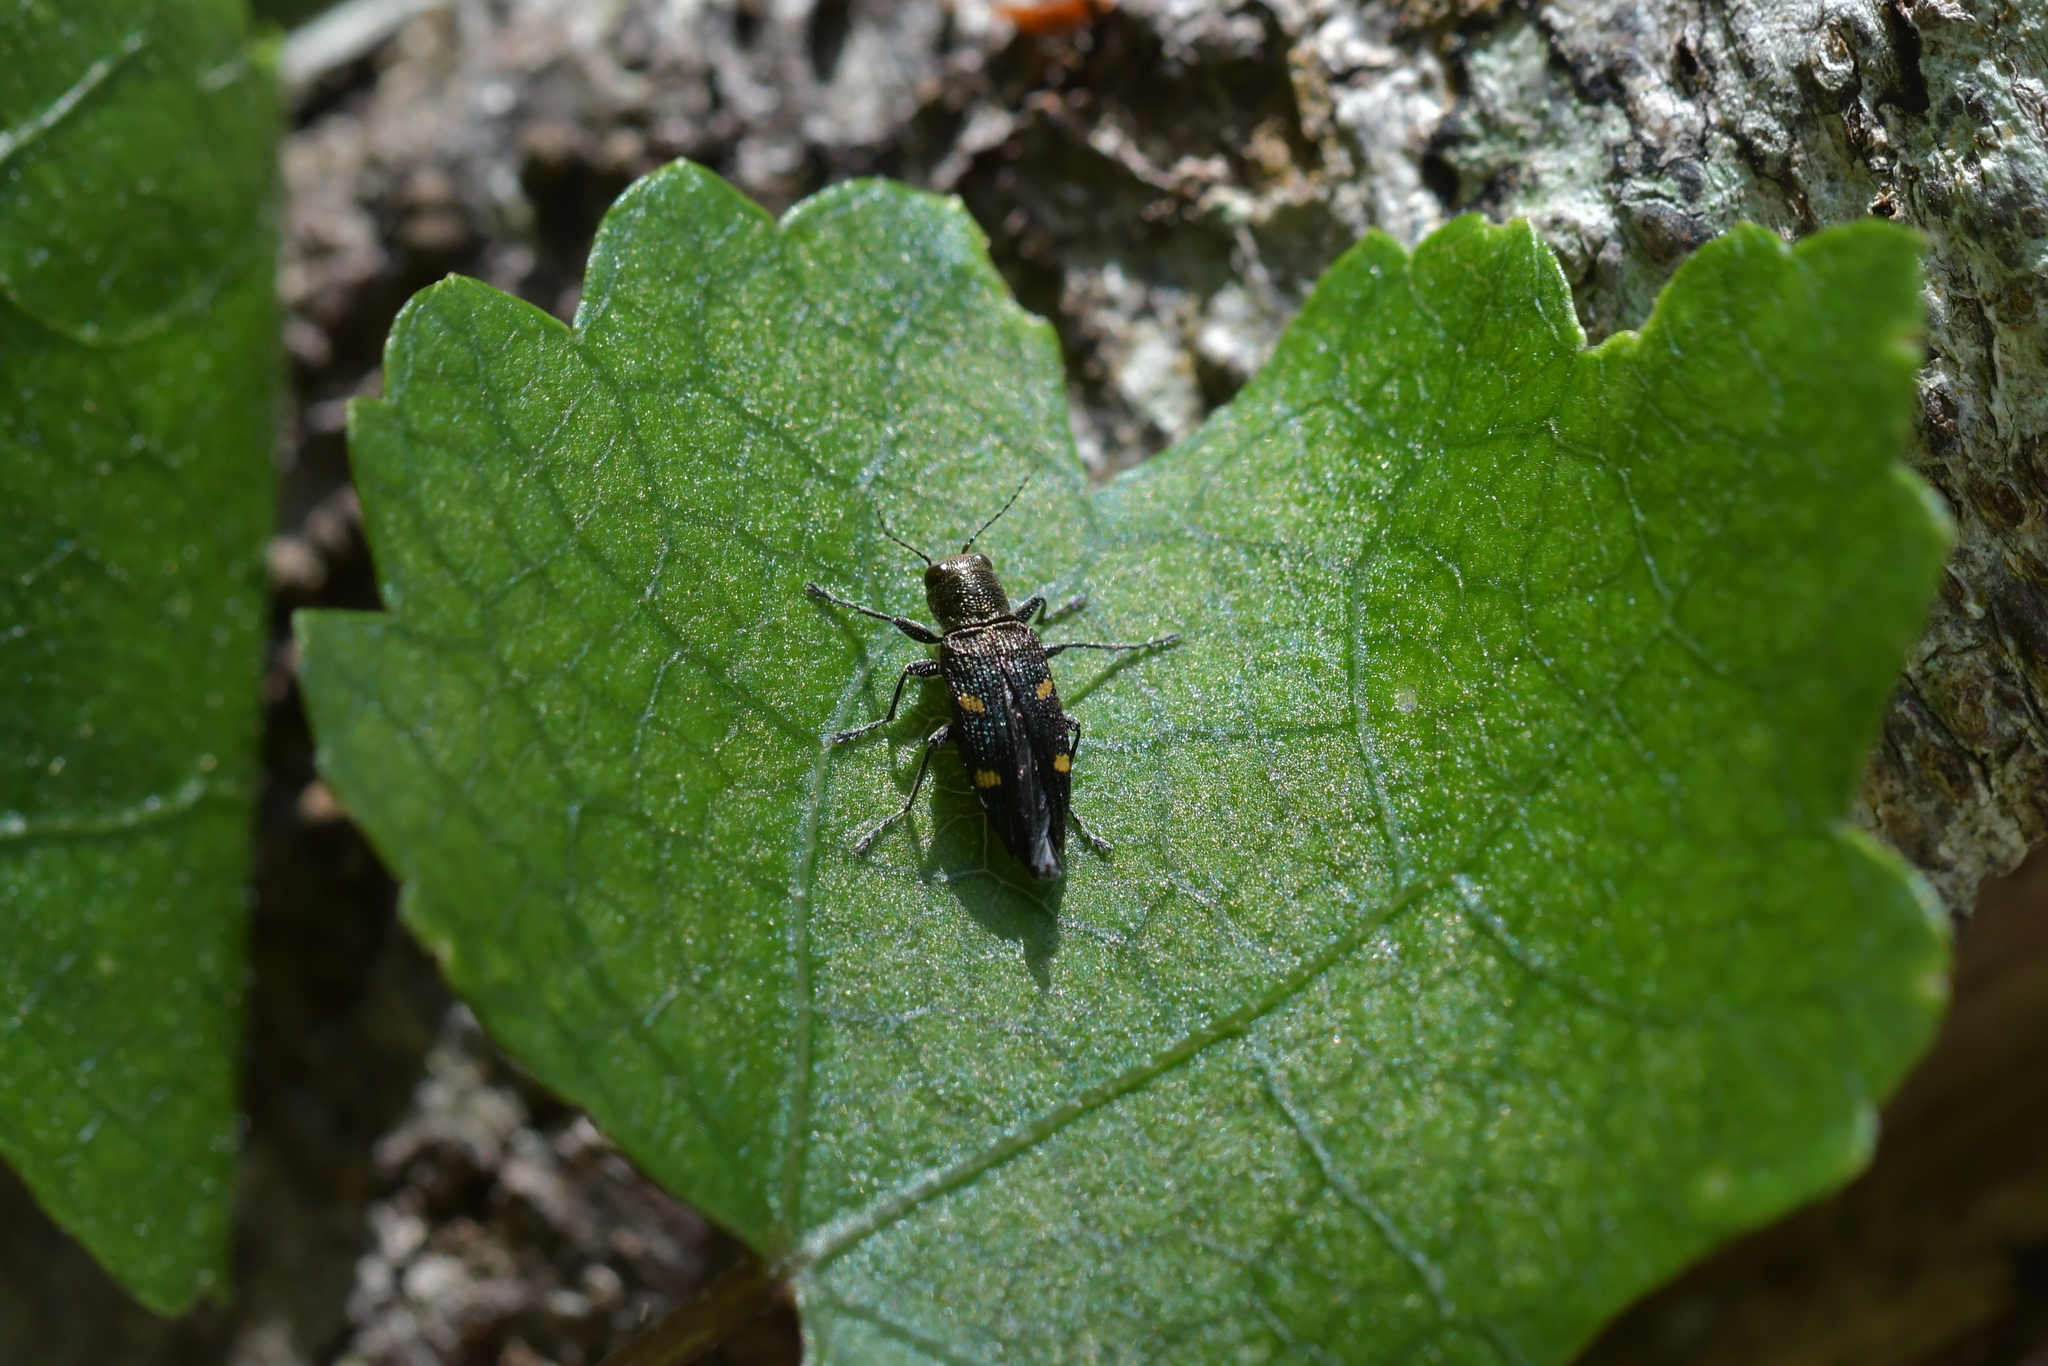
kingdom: Animalia
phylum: Arthropoda
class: Insecta
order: Coleoptera
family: Buprestidae
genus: Nascioides
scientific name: Nascioides enysi
